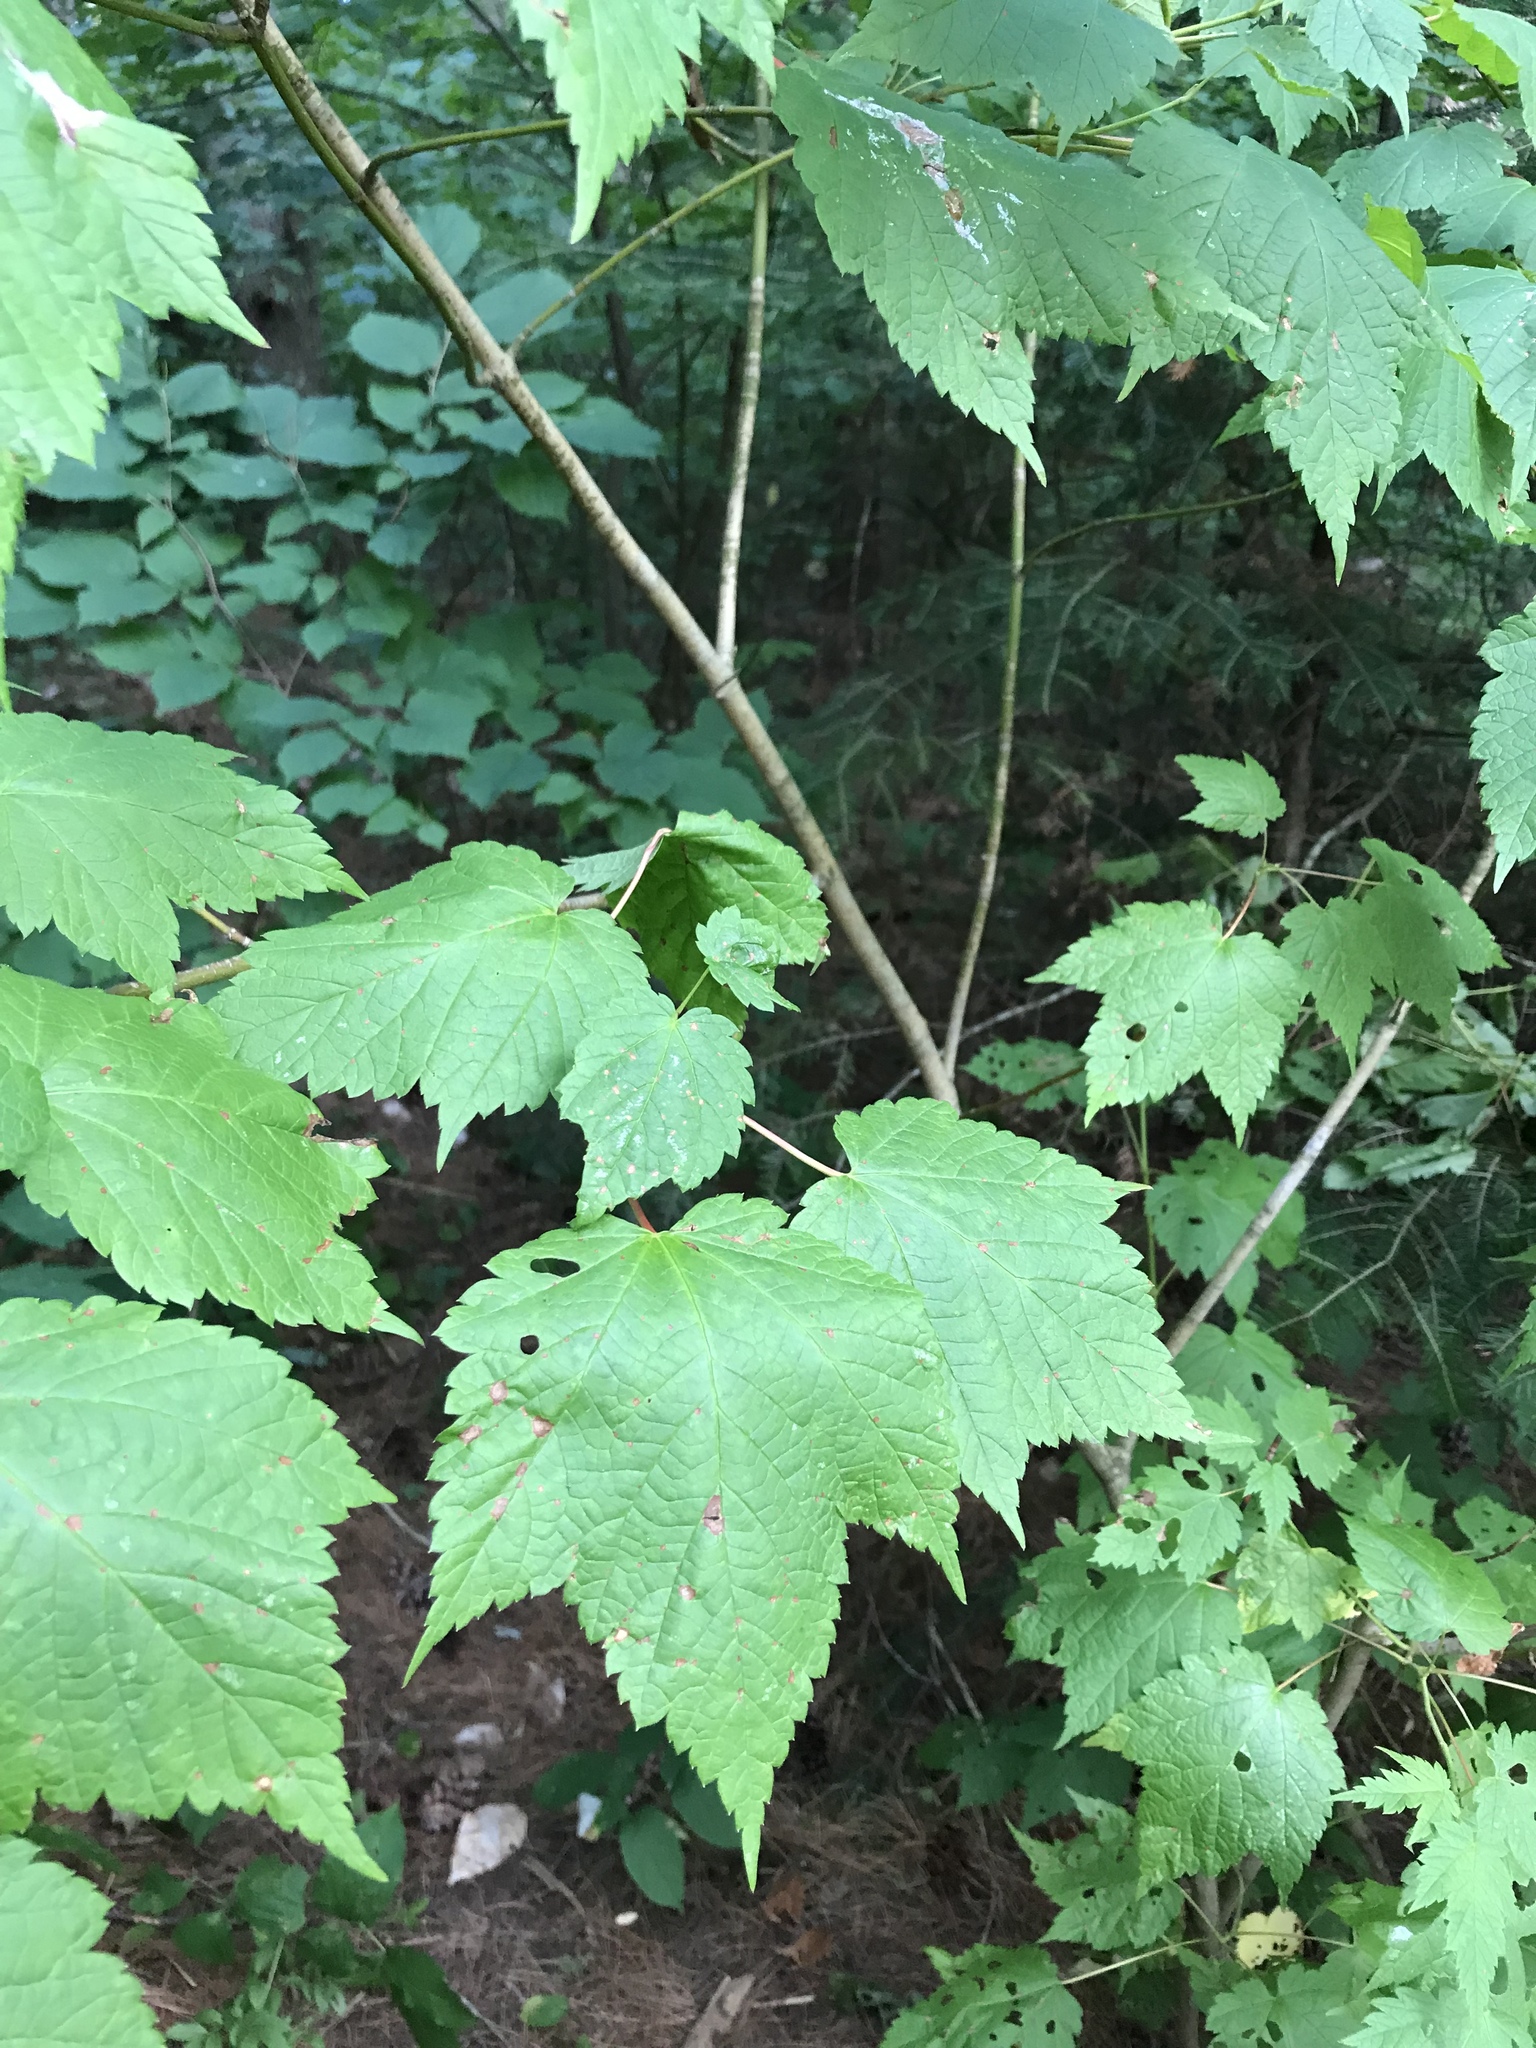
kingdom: Plantae
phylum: Tracheophyta
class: Magnoliopsida
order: Sapindales
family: Sapindaceae
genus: Acer
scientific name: Acer spicatum
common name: Mountain maple
